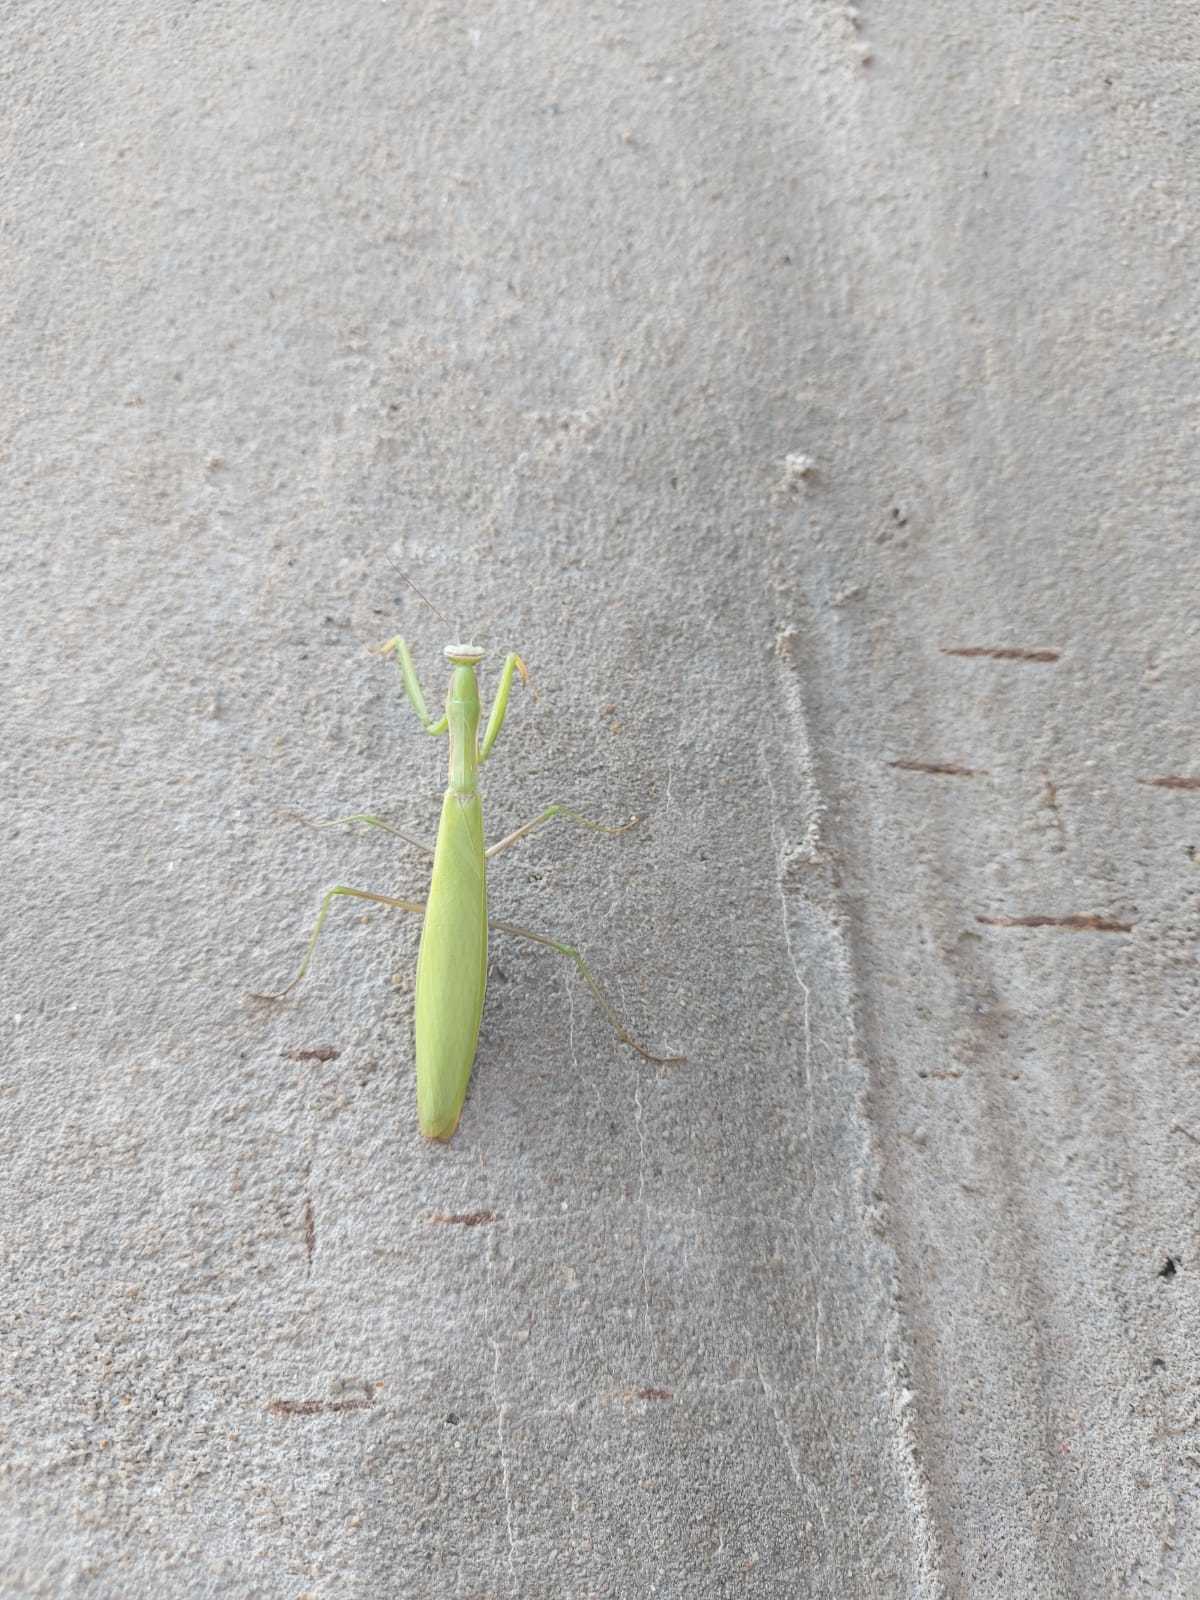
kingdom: Animalia
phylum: Arthropoda
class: Insecta
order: Mantodea
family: Mantidae
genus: Mantis
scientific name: Mantis religiosa
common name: Praying mantis
